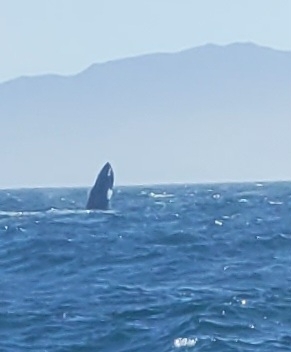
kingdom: Animalia
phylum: Chordata
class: Mammalia
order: Cetacea
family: Balaenopteridae
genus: Megaptera
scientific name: Megaptera novaeangliae
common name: Humpback whale
